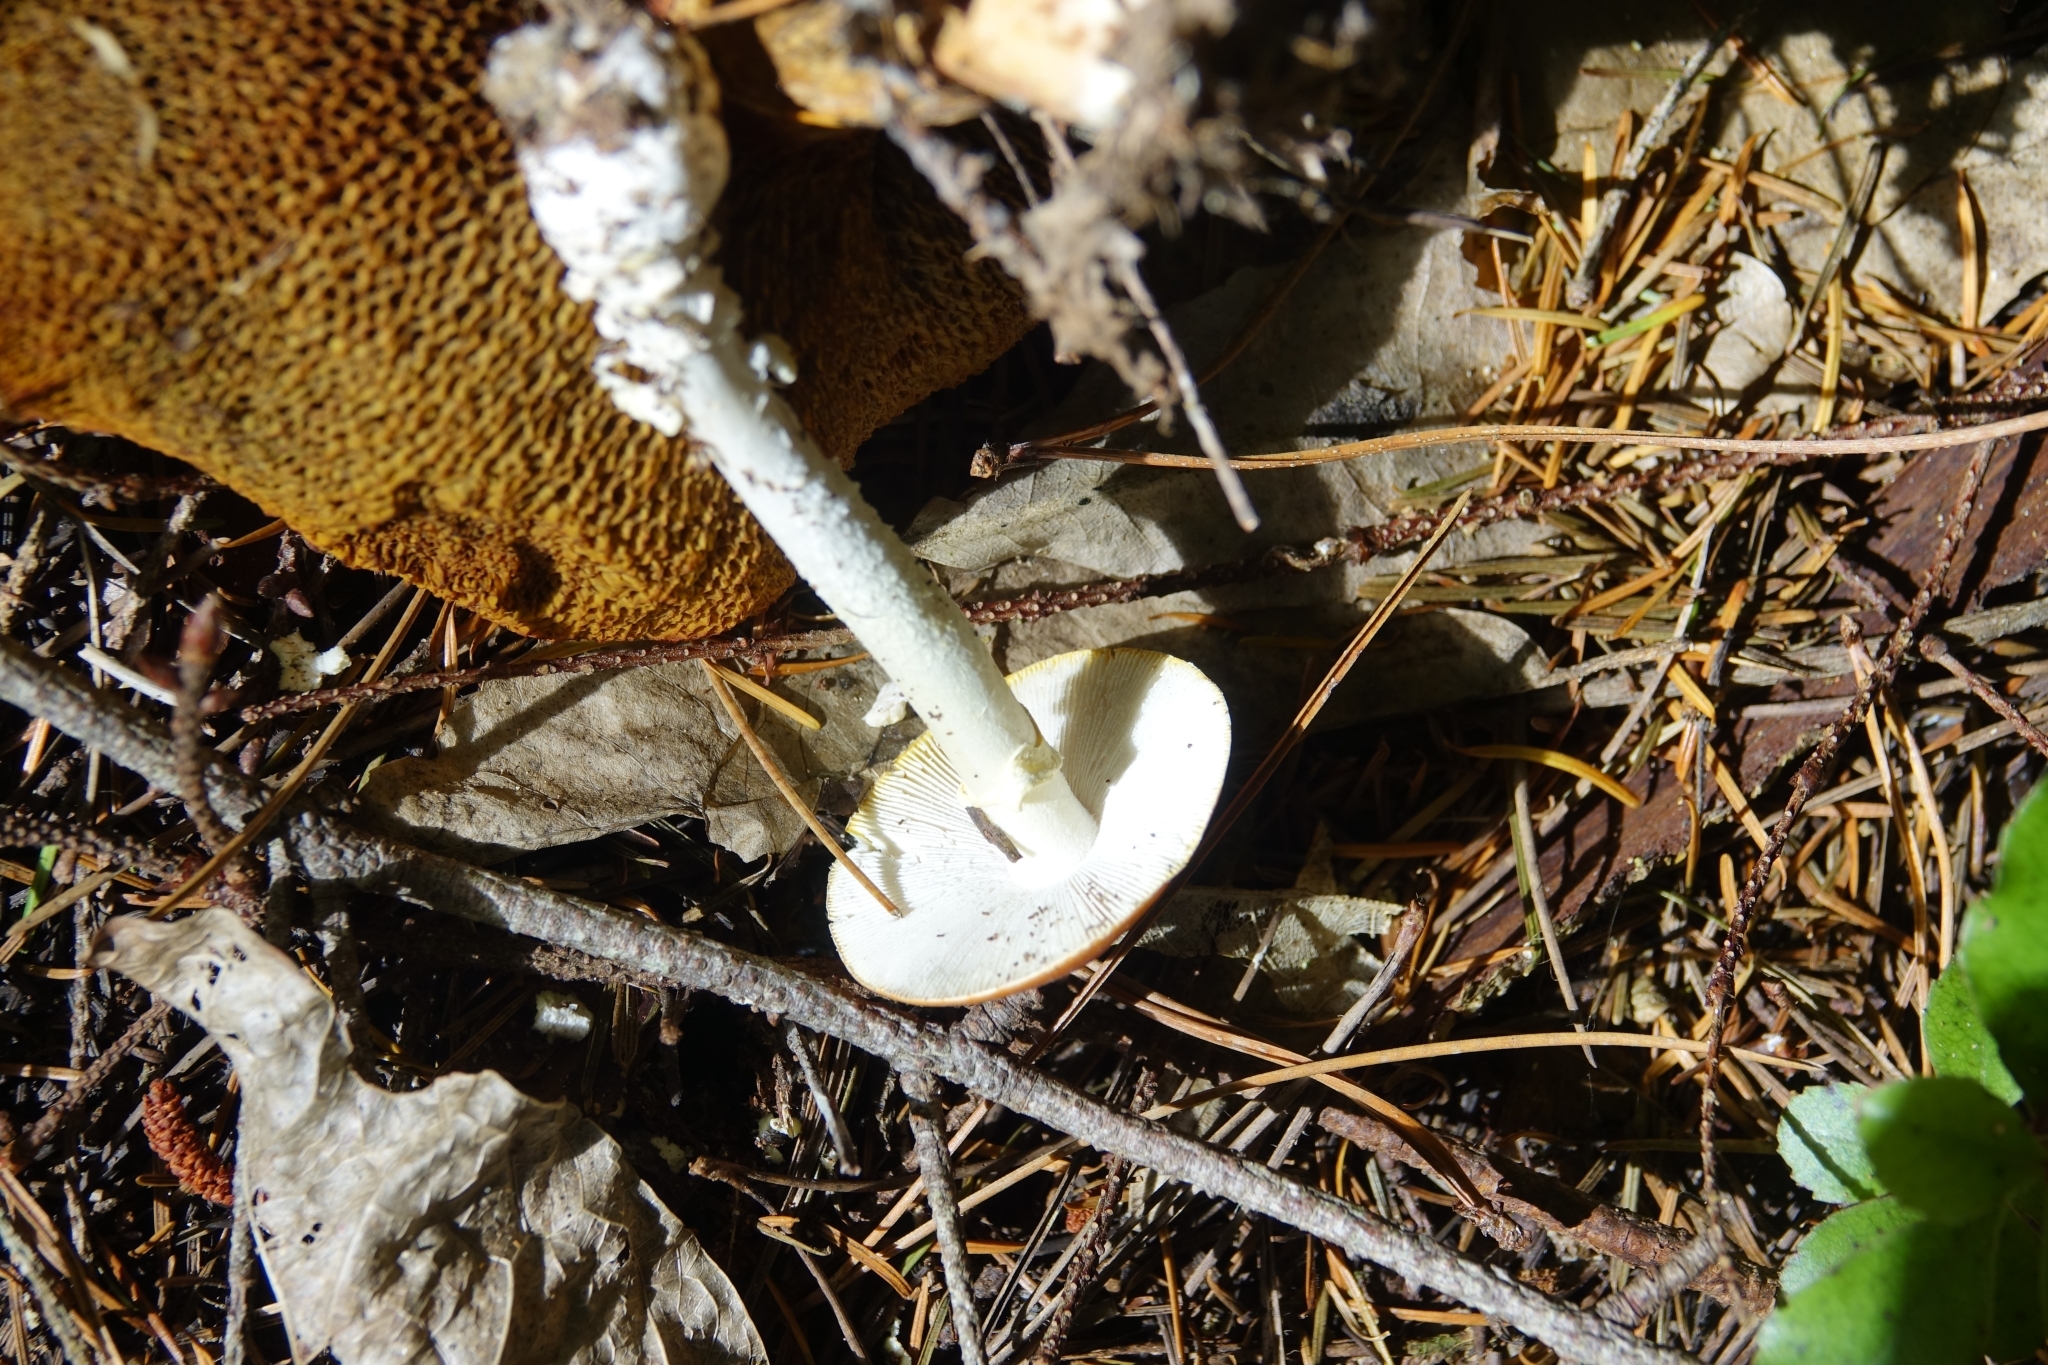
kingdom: Fungi
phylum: Basidiomycota
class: Agaricomycetes
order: Agaricales
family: Amanitaceae
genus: Amanita
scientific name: Amanita muscaria
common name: Fly agaric
